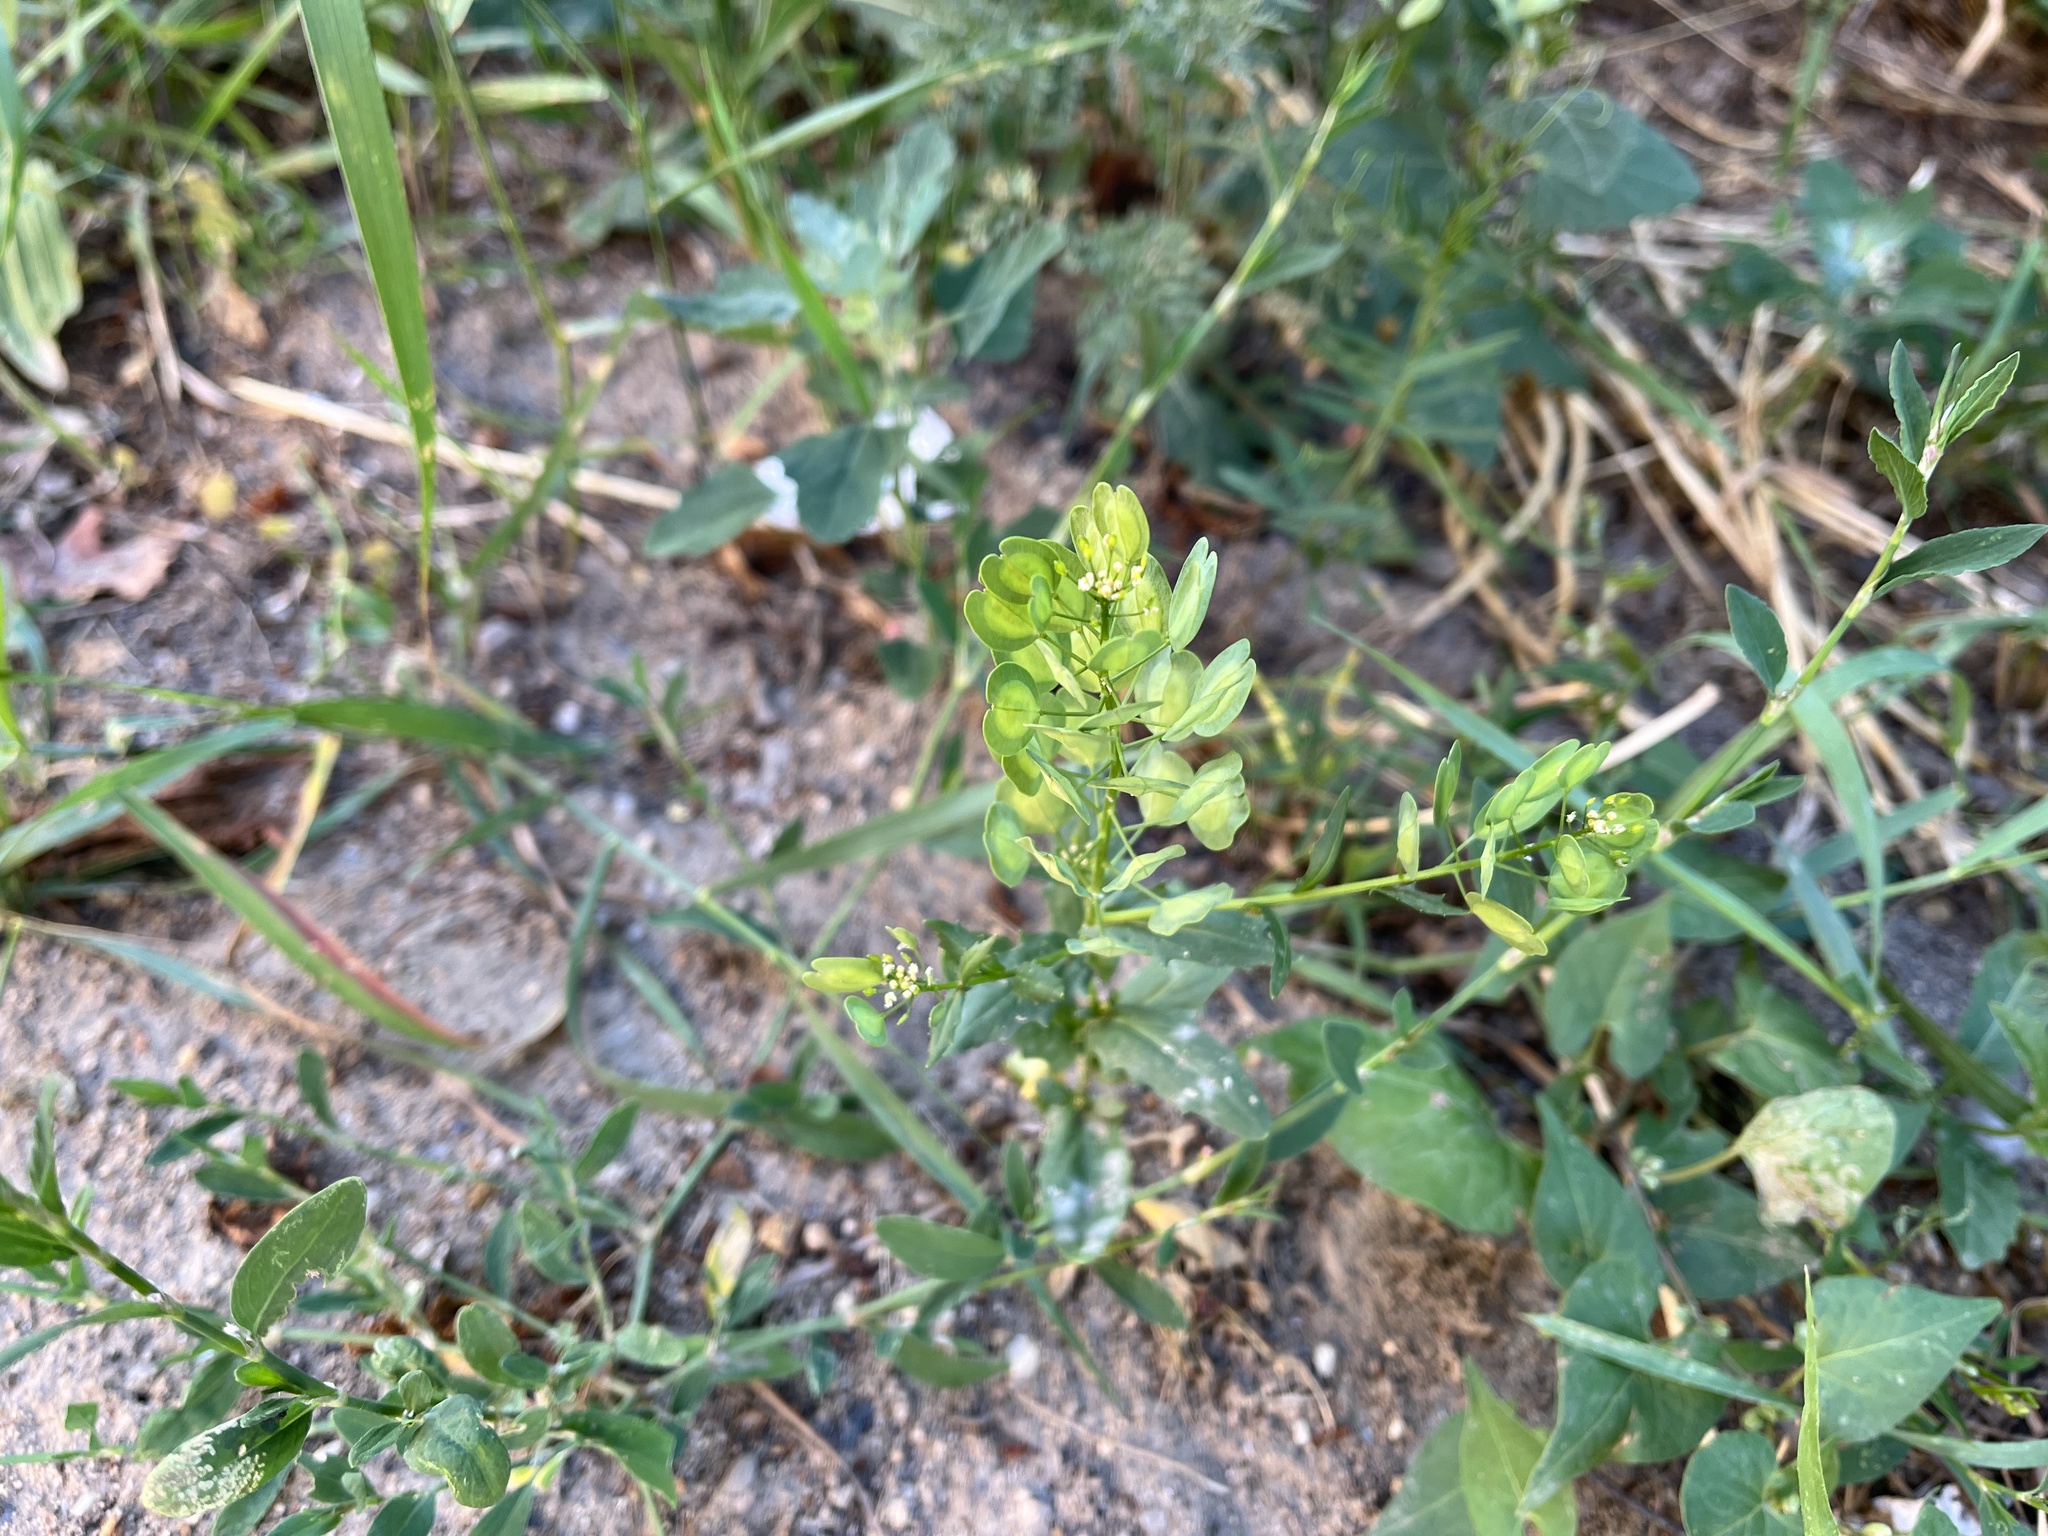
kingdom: Plantae
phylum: Tracheophyta
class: Magnoliopsida
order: Brassicales
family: Brassicaceae
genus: Thlaspi
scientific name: Thlaspi arvense
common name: Field pennycress
